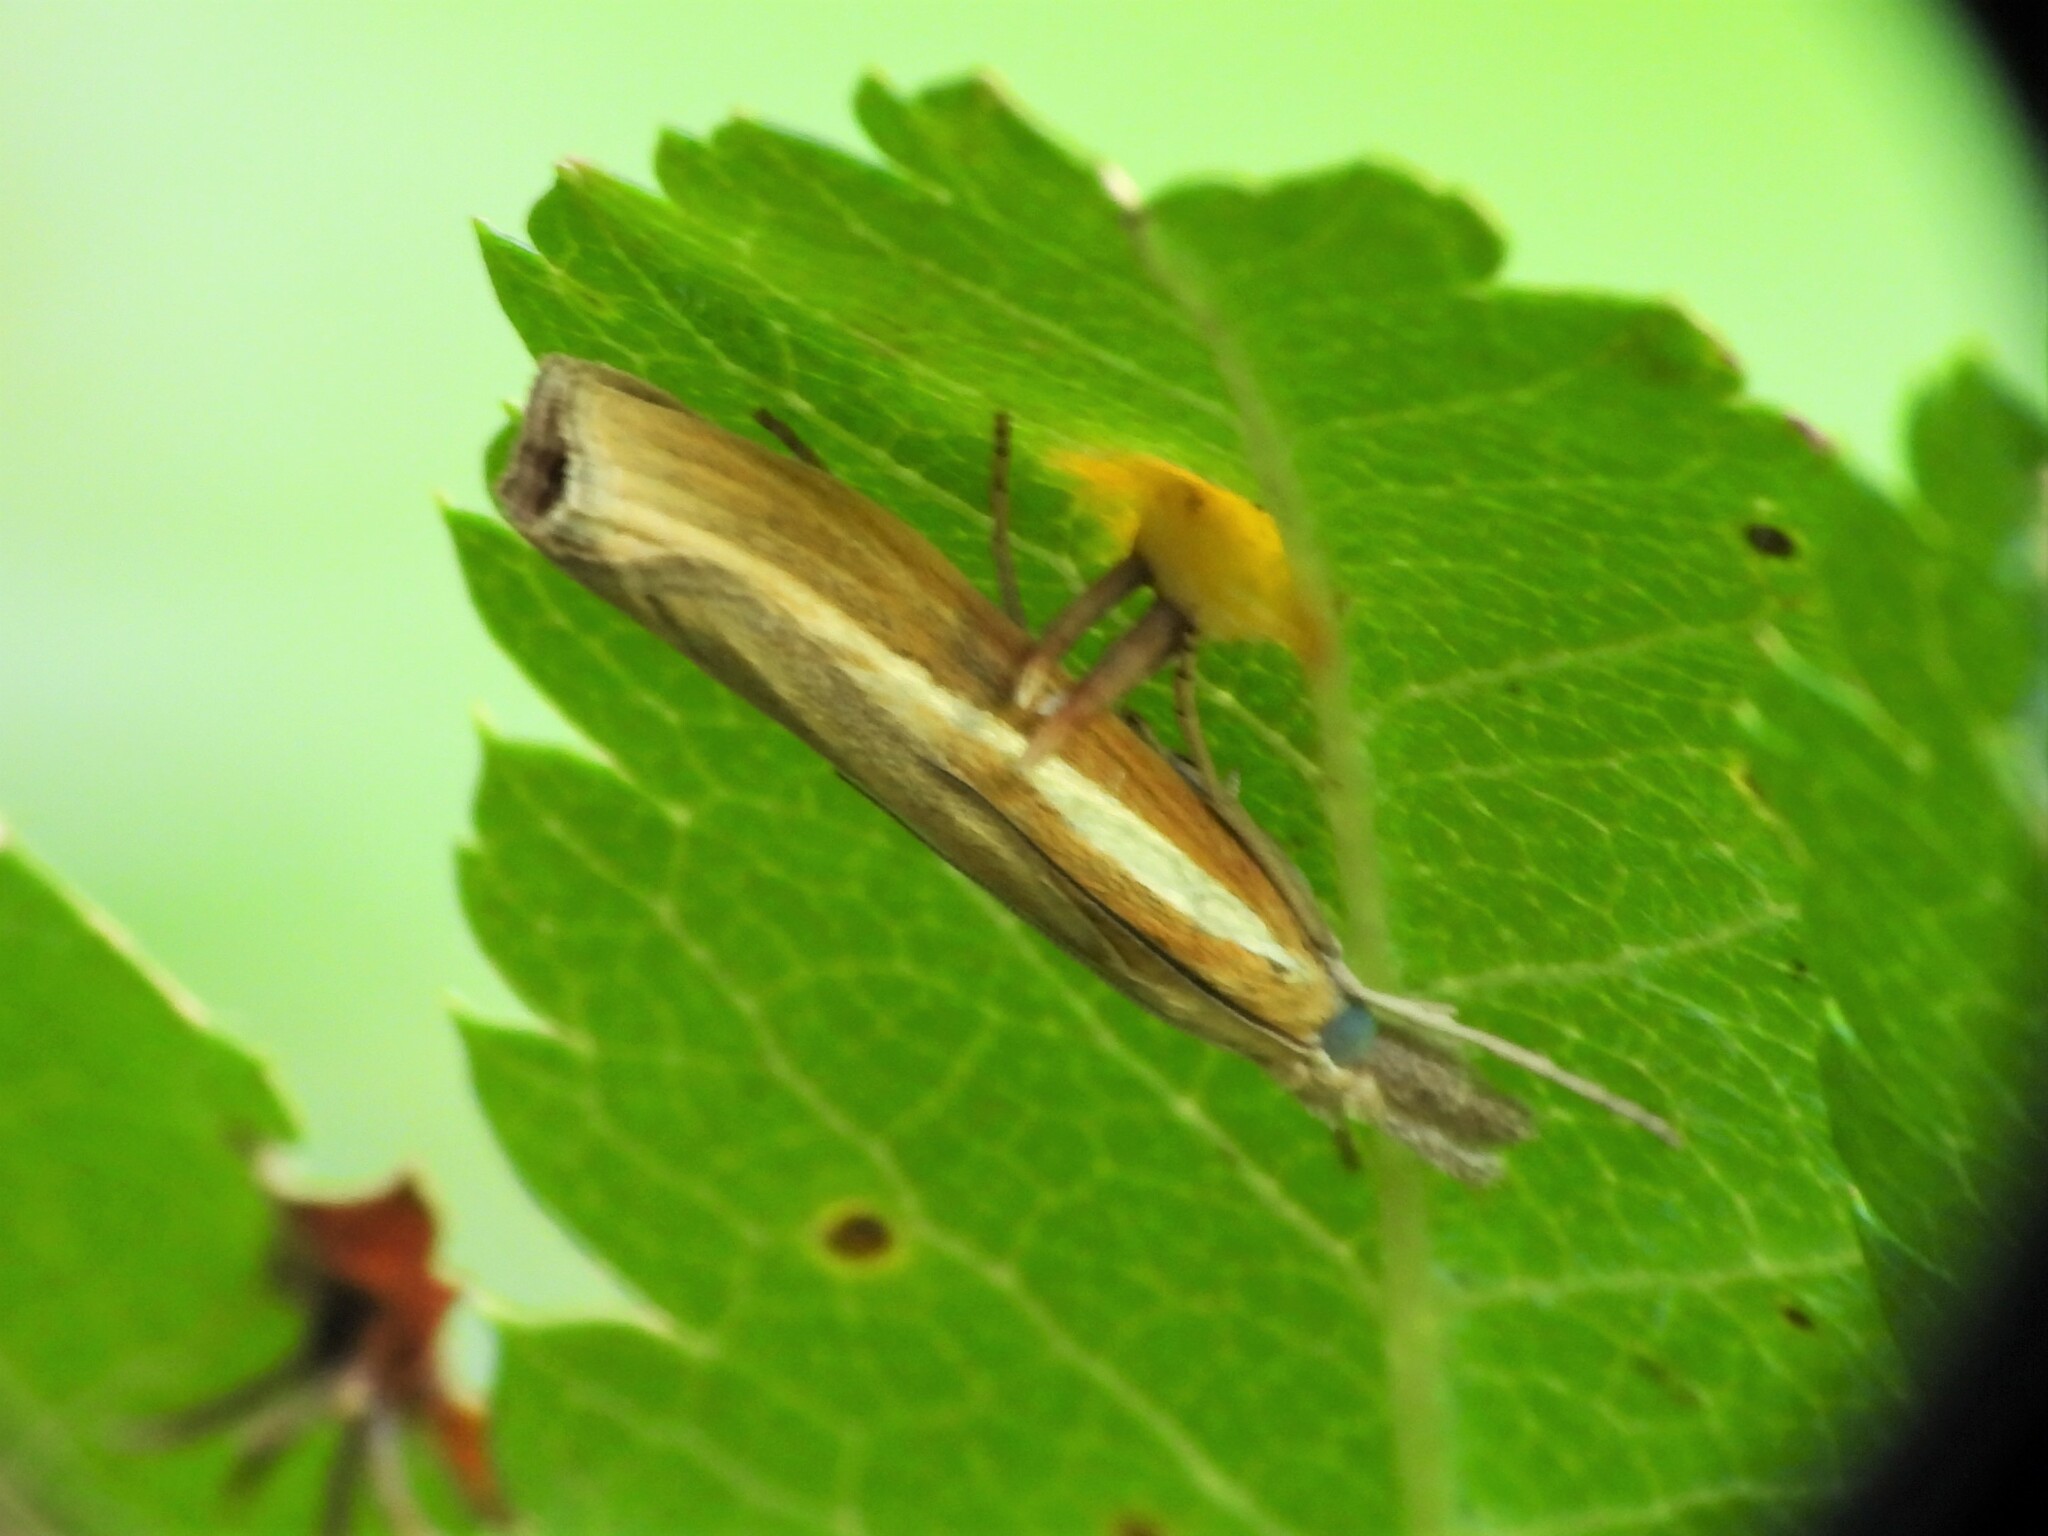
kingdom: Animalia
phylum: Arthropoda
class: Insecta
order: Lepidoptera
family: Crambidae
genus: Agriphila
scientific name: Agriphila tristellus
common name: Common grass-veneer
